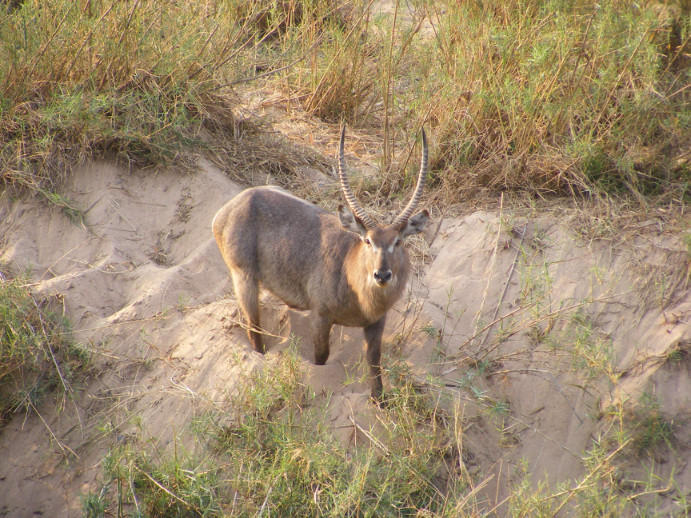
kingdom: Animalia
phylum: Chordata
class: Mammalia
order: Artiodactyla
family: Bovidae
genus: Kobus
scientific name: Kobus ellipsiprymnus
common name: Waterbuck
